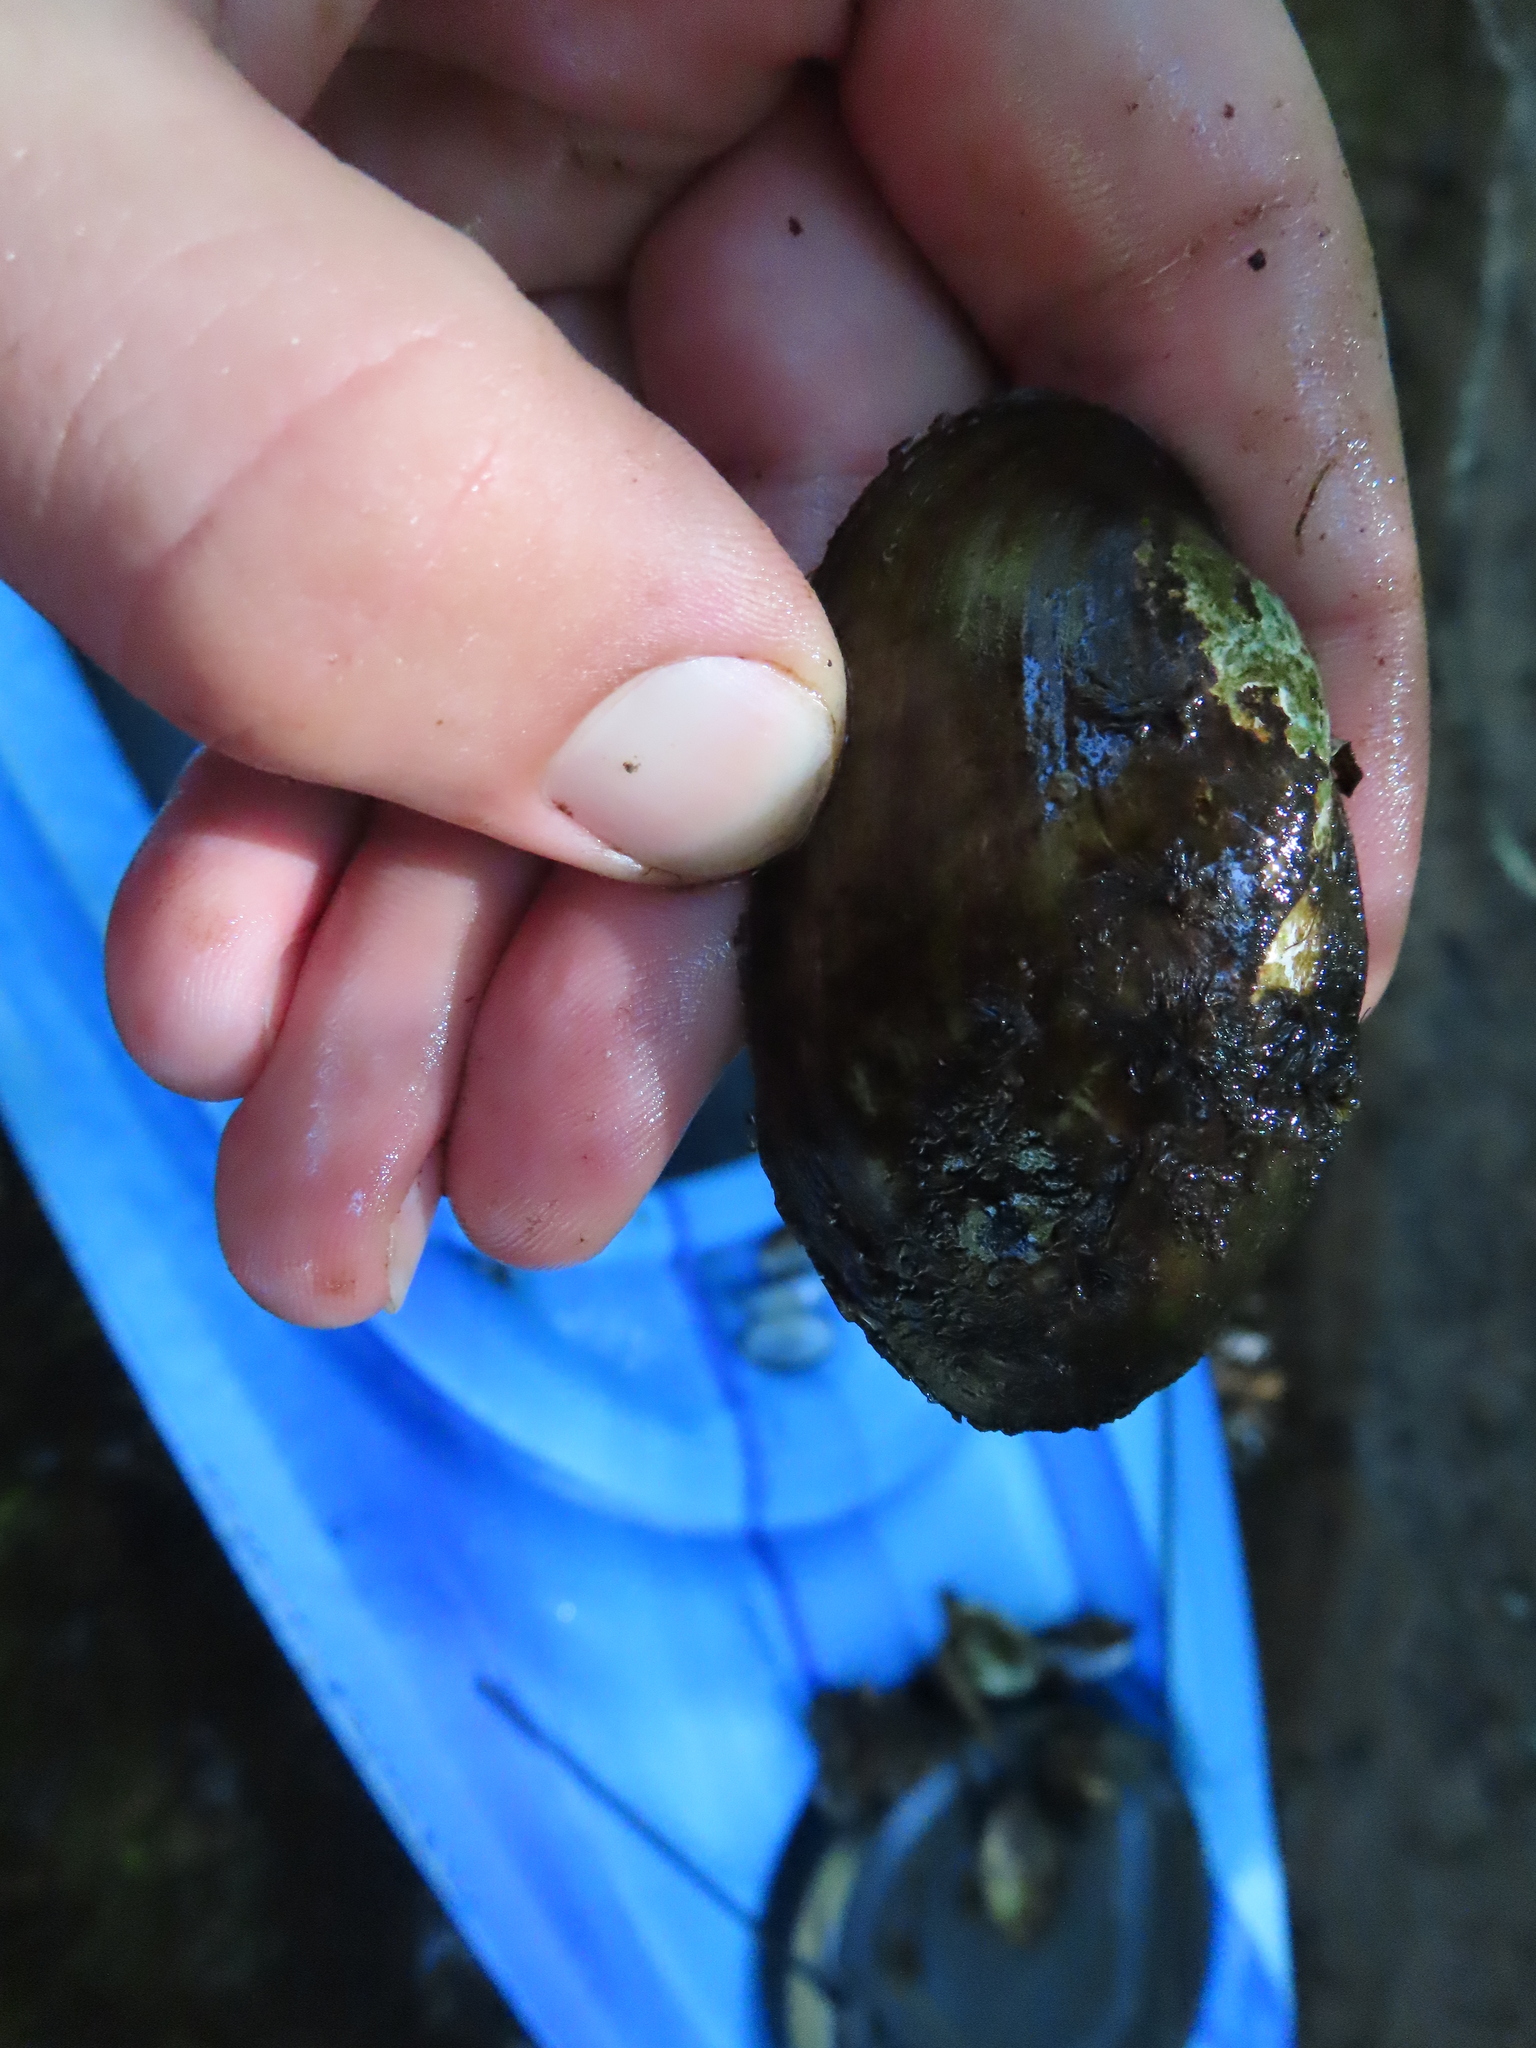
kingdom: Animalia
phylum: Mollusca
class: Bivalvia
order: Unionida
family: Unionidae
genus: Lampsilis
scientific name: Lampsilis siliquoidea
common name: Fatmucket
